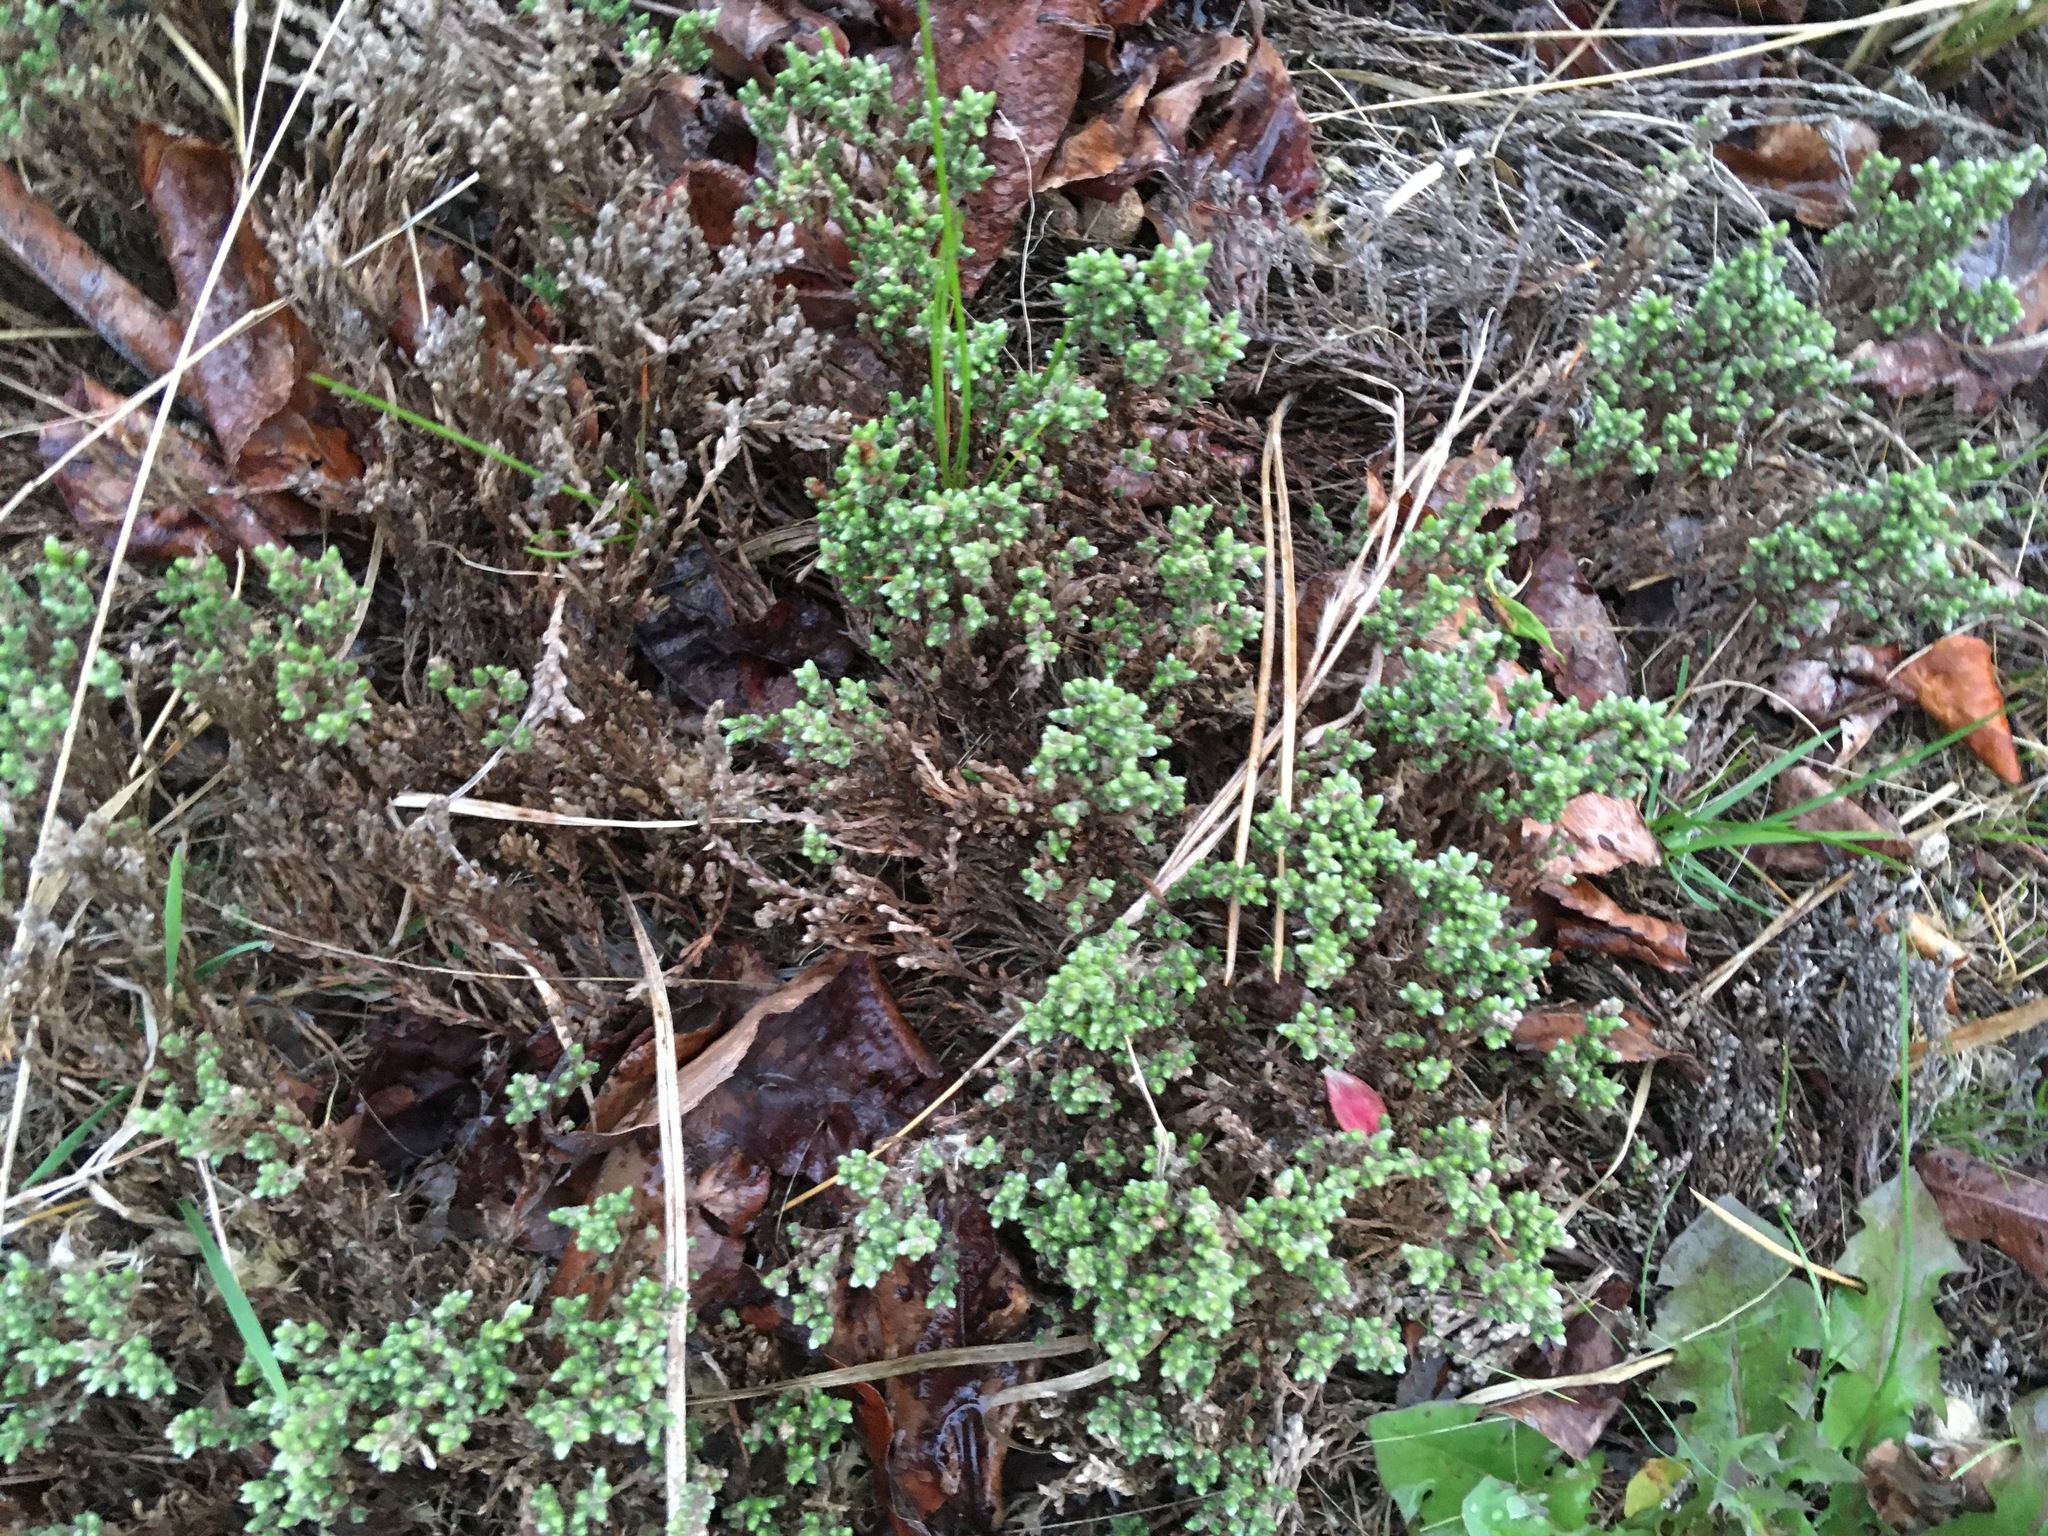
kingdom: Plantae
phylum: Tracheophyta
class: Magnoliopsida
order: Malvales
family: Cistaceae
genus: Hudsonia
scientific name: Hudsonia tomentosa
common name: Beach-heath
